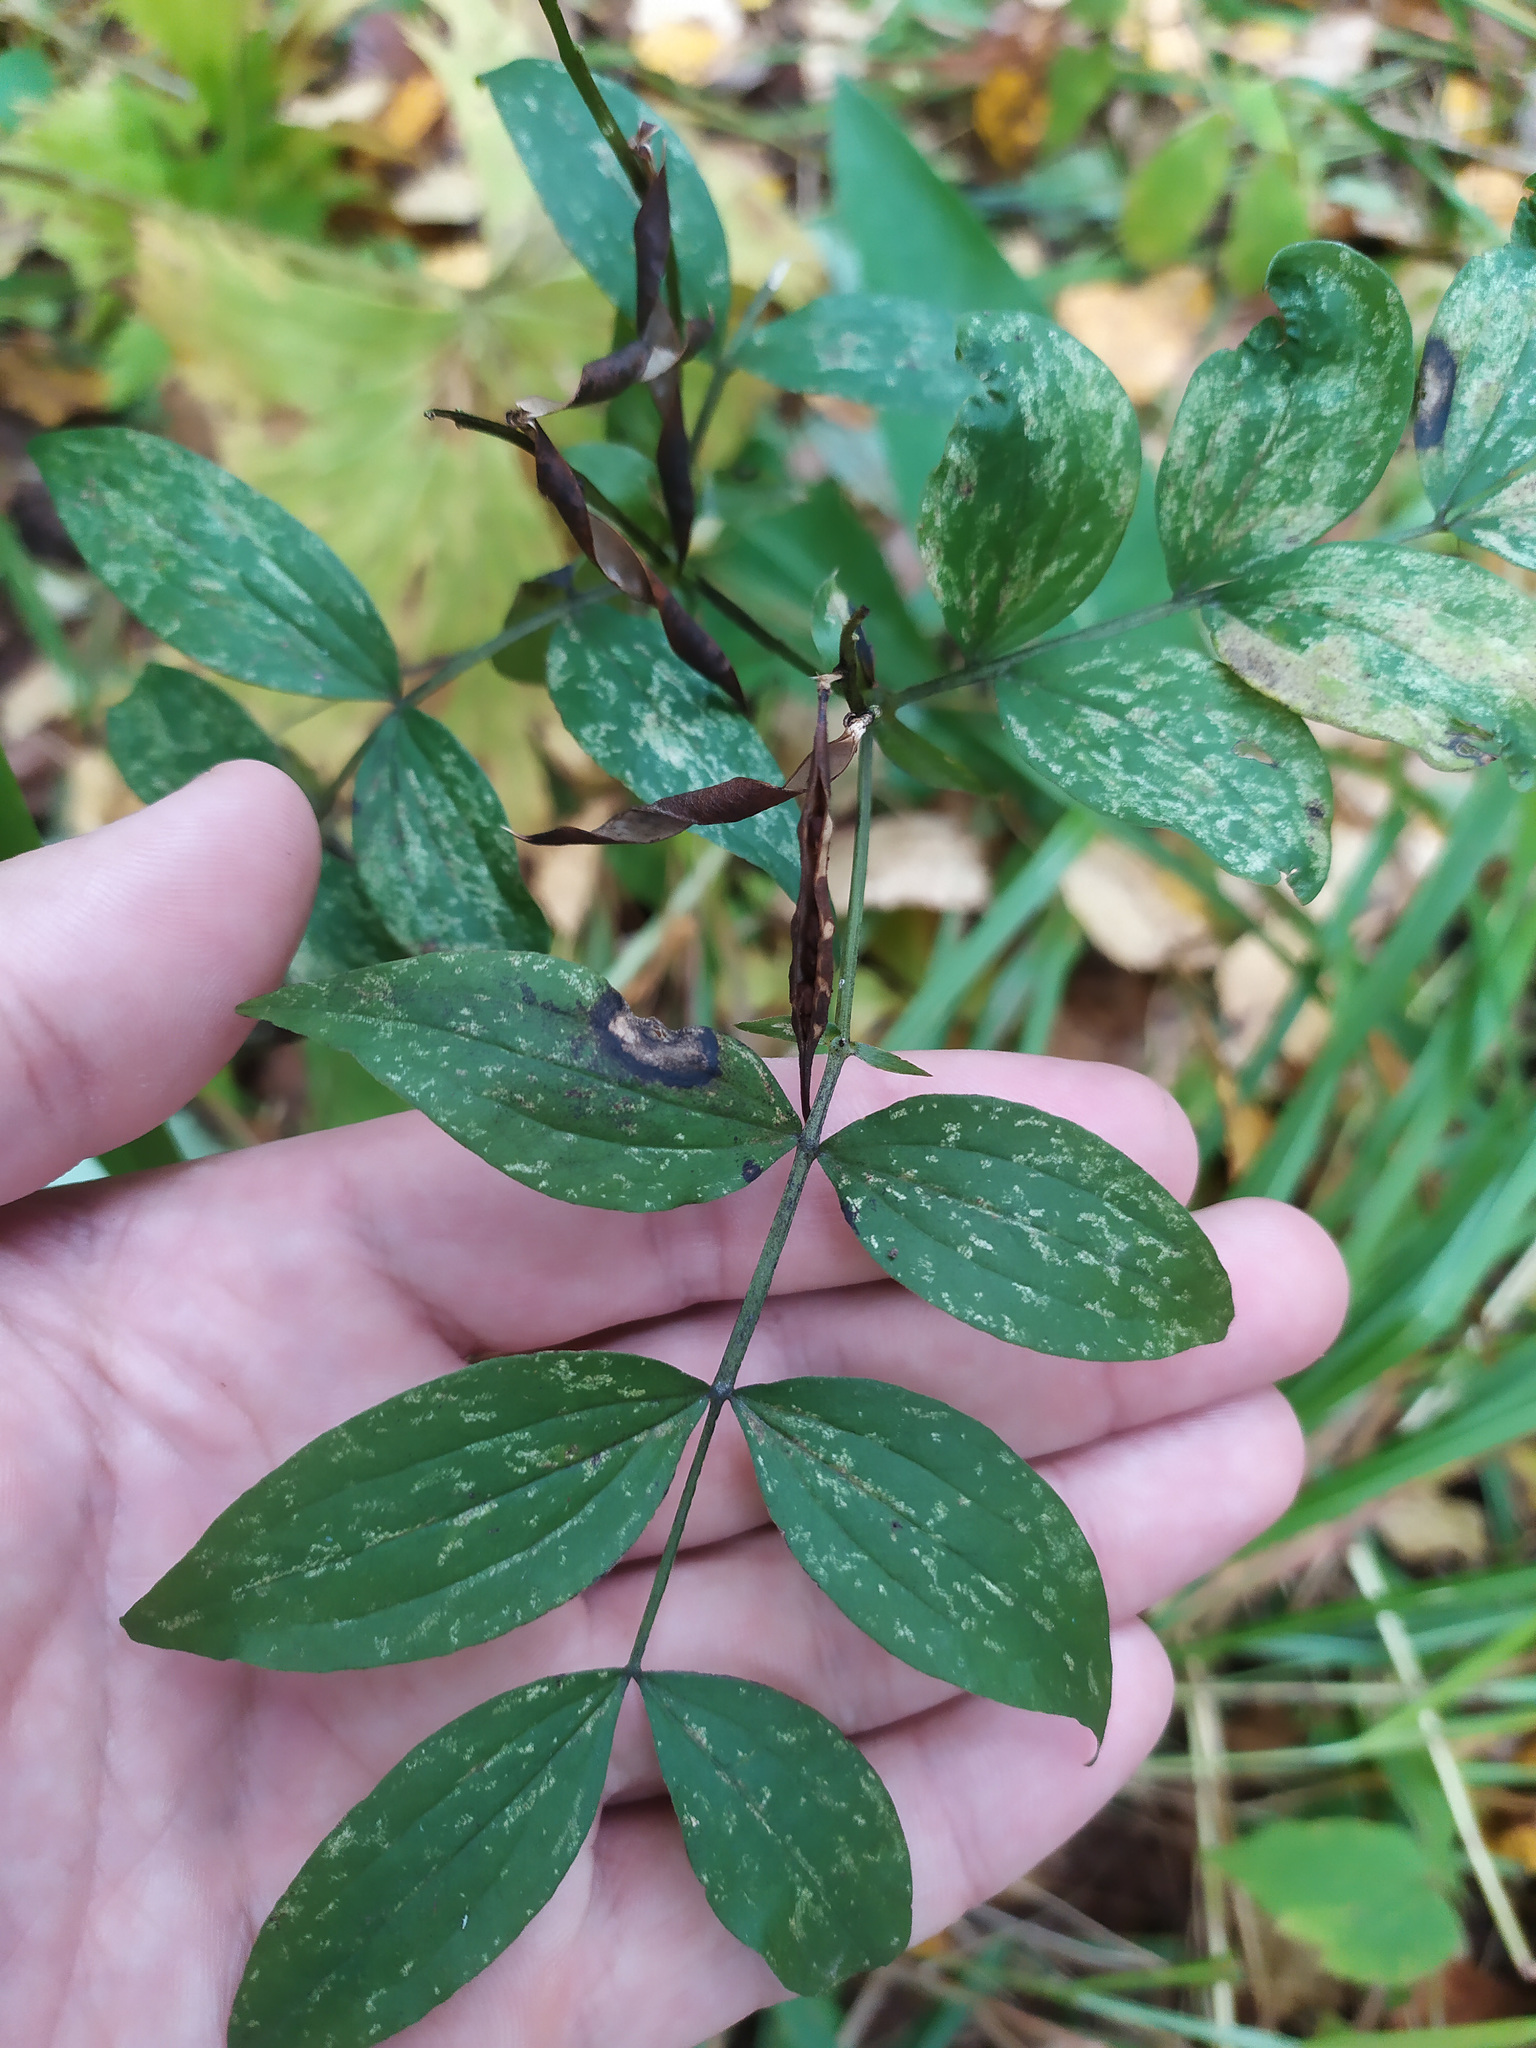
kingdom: Plantae
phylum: Tracheophyta
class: Magnoliopsida
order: Fabales
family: Fabaceae
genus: Lathyrus
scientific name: Lathyrus vernus
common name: Spring pea
